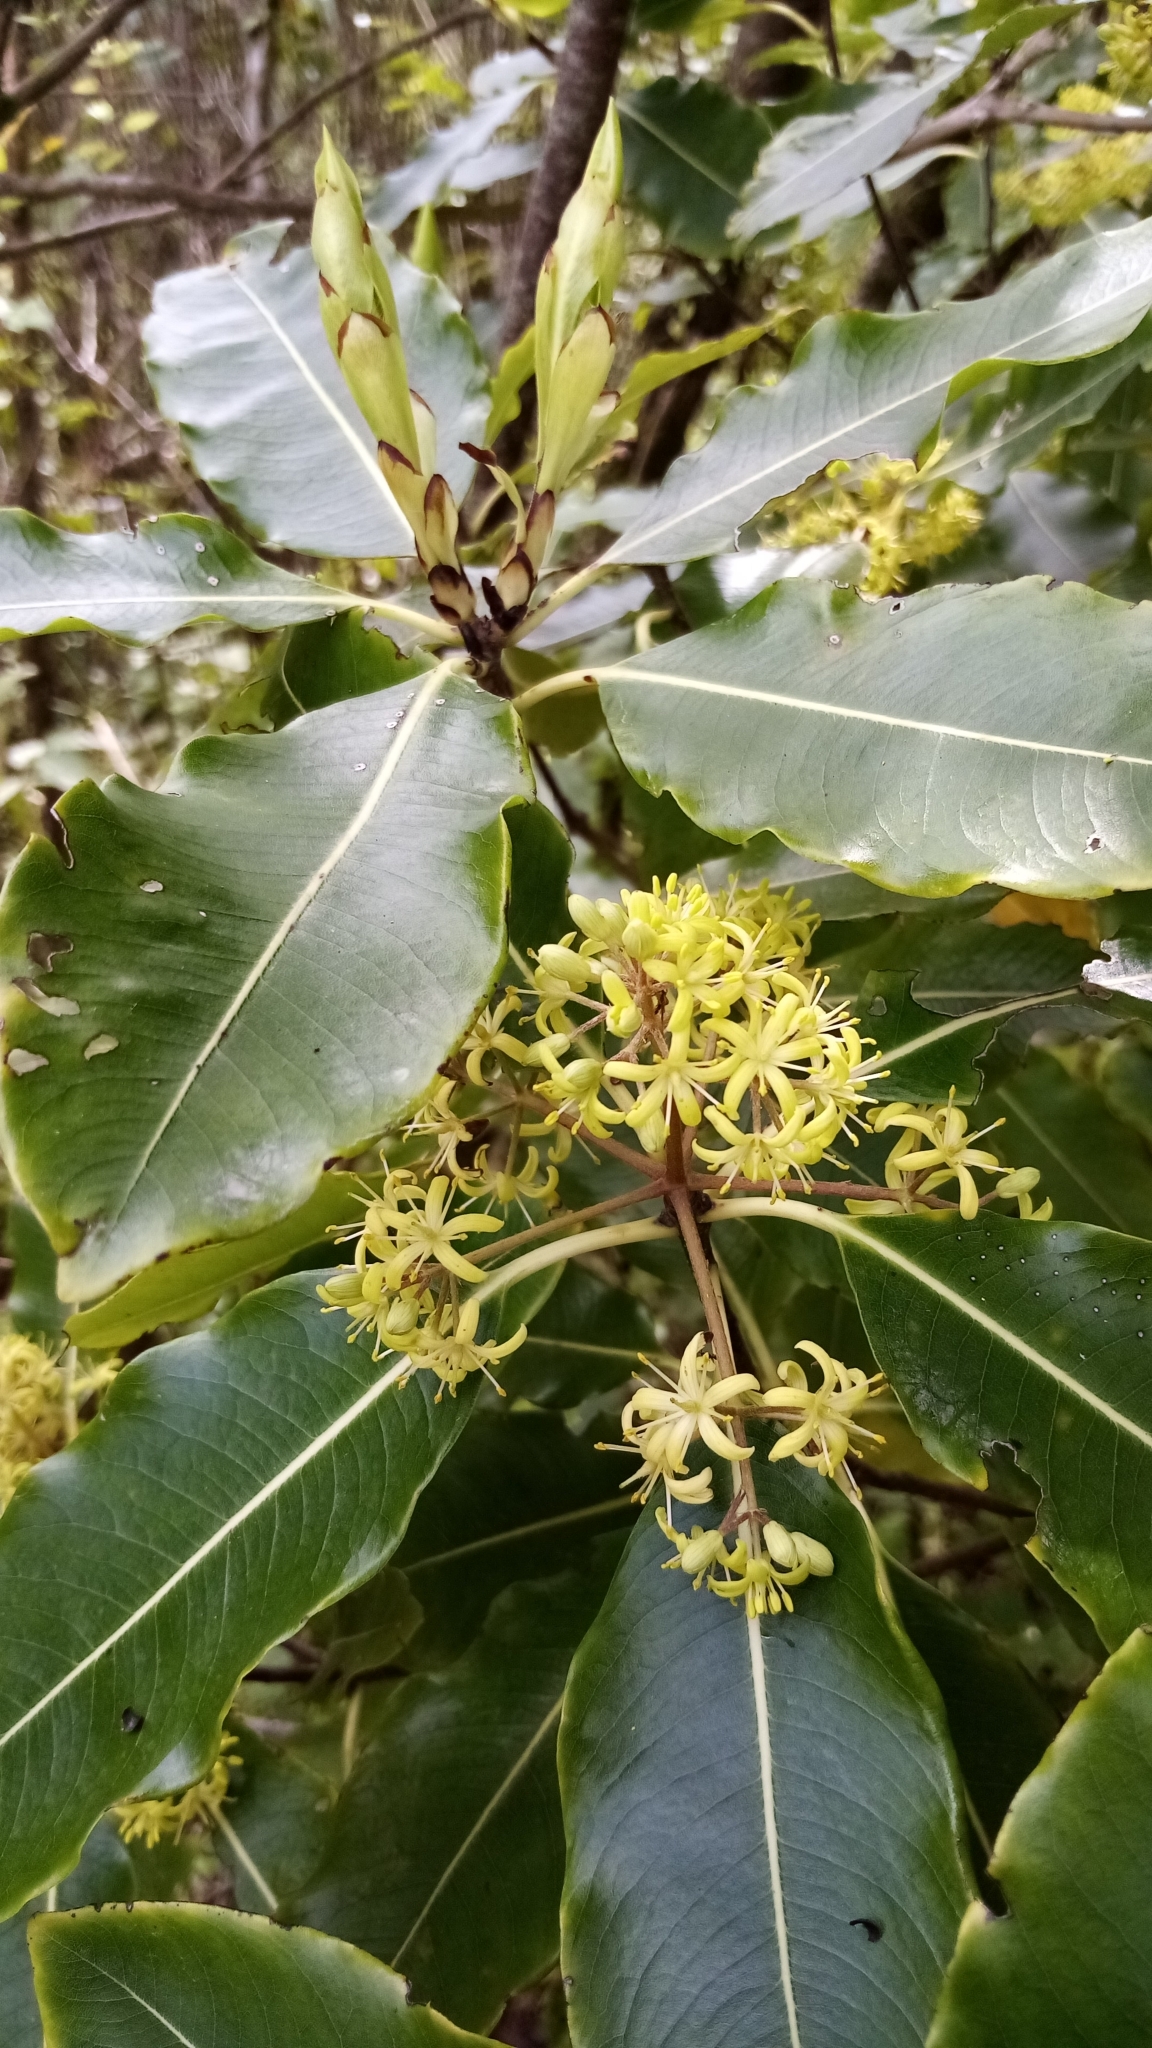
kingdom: Plantae
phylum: Tracheophyta
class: Magnoliopsida
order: Apiales
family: Pittosporaceae
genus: Pittosporum
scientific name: Pittosporum eugenioides
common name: Lemonwood
